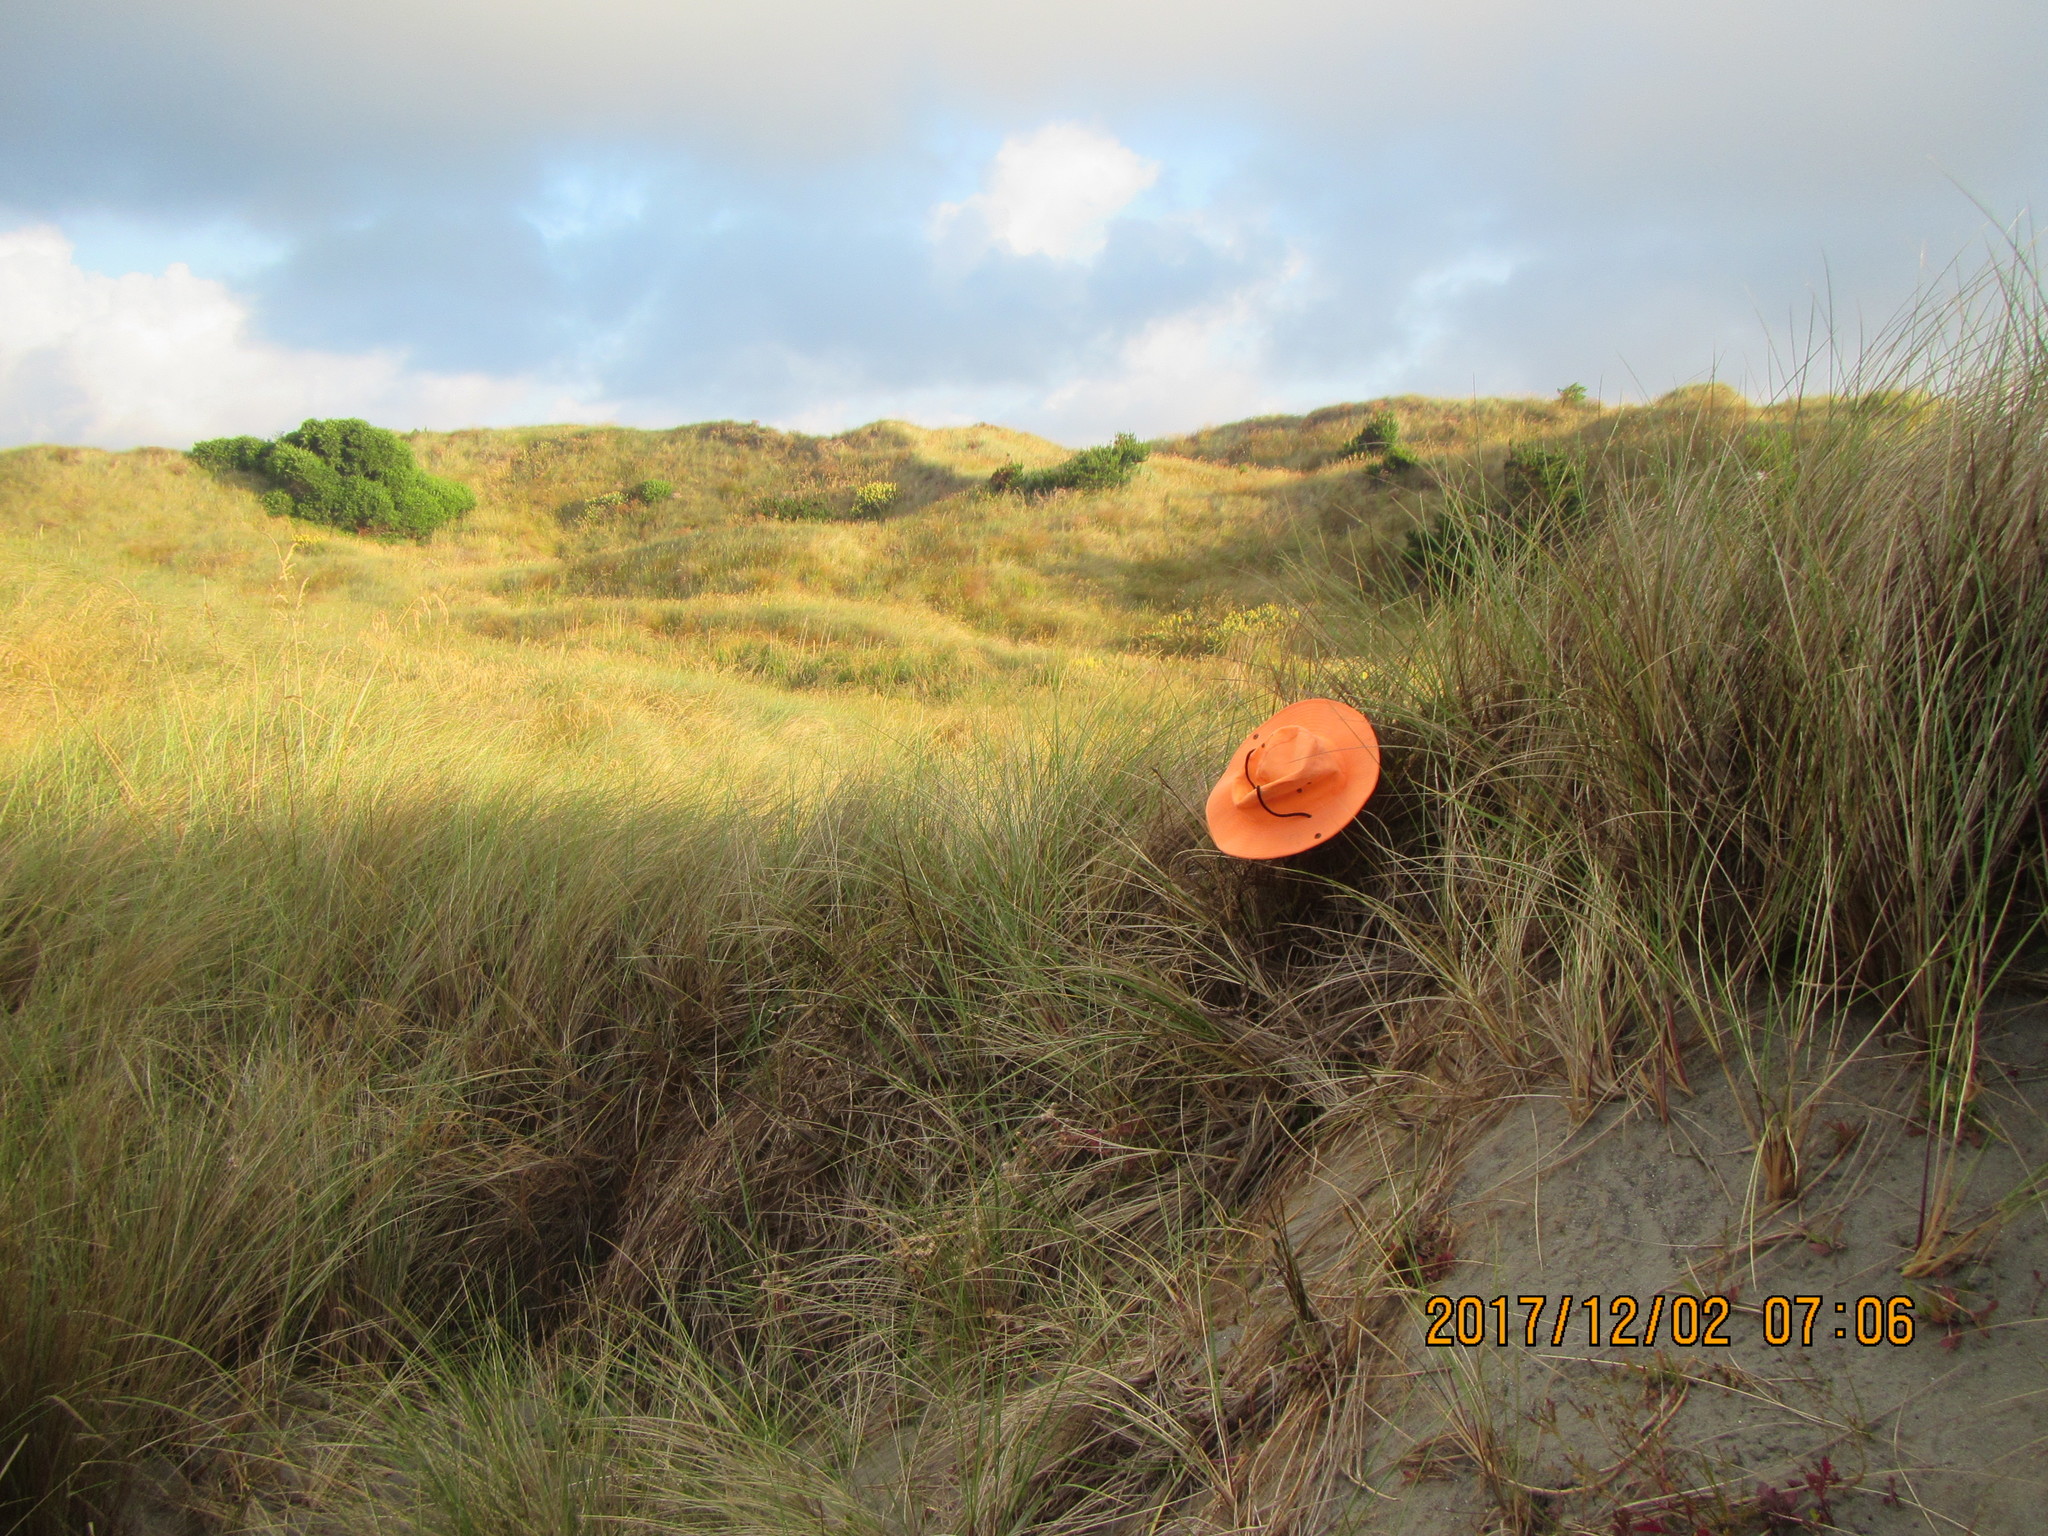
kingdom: Plantae
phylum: Tracheophyta
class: Magnoliopsida
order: Gentianales
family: Rubiaceae
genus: Coprosma
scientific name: Coprosma acerosa
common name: Sand coprosma
